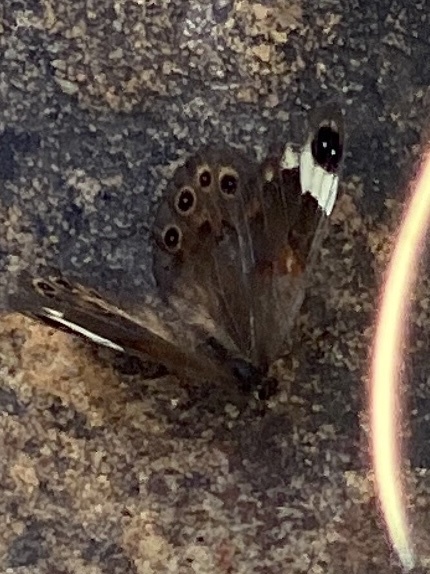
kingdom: Animalia
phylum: Arthropoda
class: Insecta
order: Lepidoptera
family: Nymphalidae
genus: Torynesis
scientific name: Torynesis mintha
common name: Mintha widow
